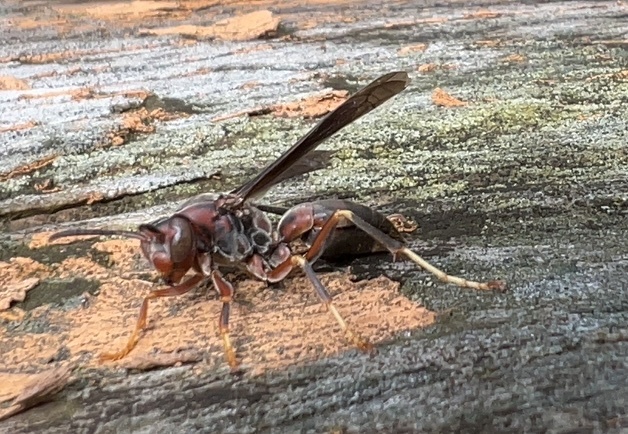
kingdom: Animalia
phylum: Arthropoda
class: Insecta
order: Hymenoptera
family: Eumenidae
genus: Polistes
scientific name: Polistes metricus
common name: Metric paper wasp
